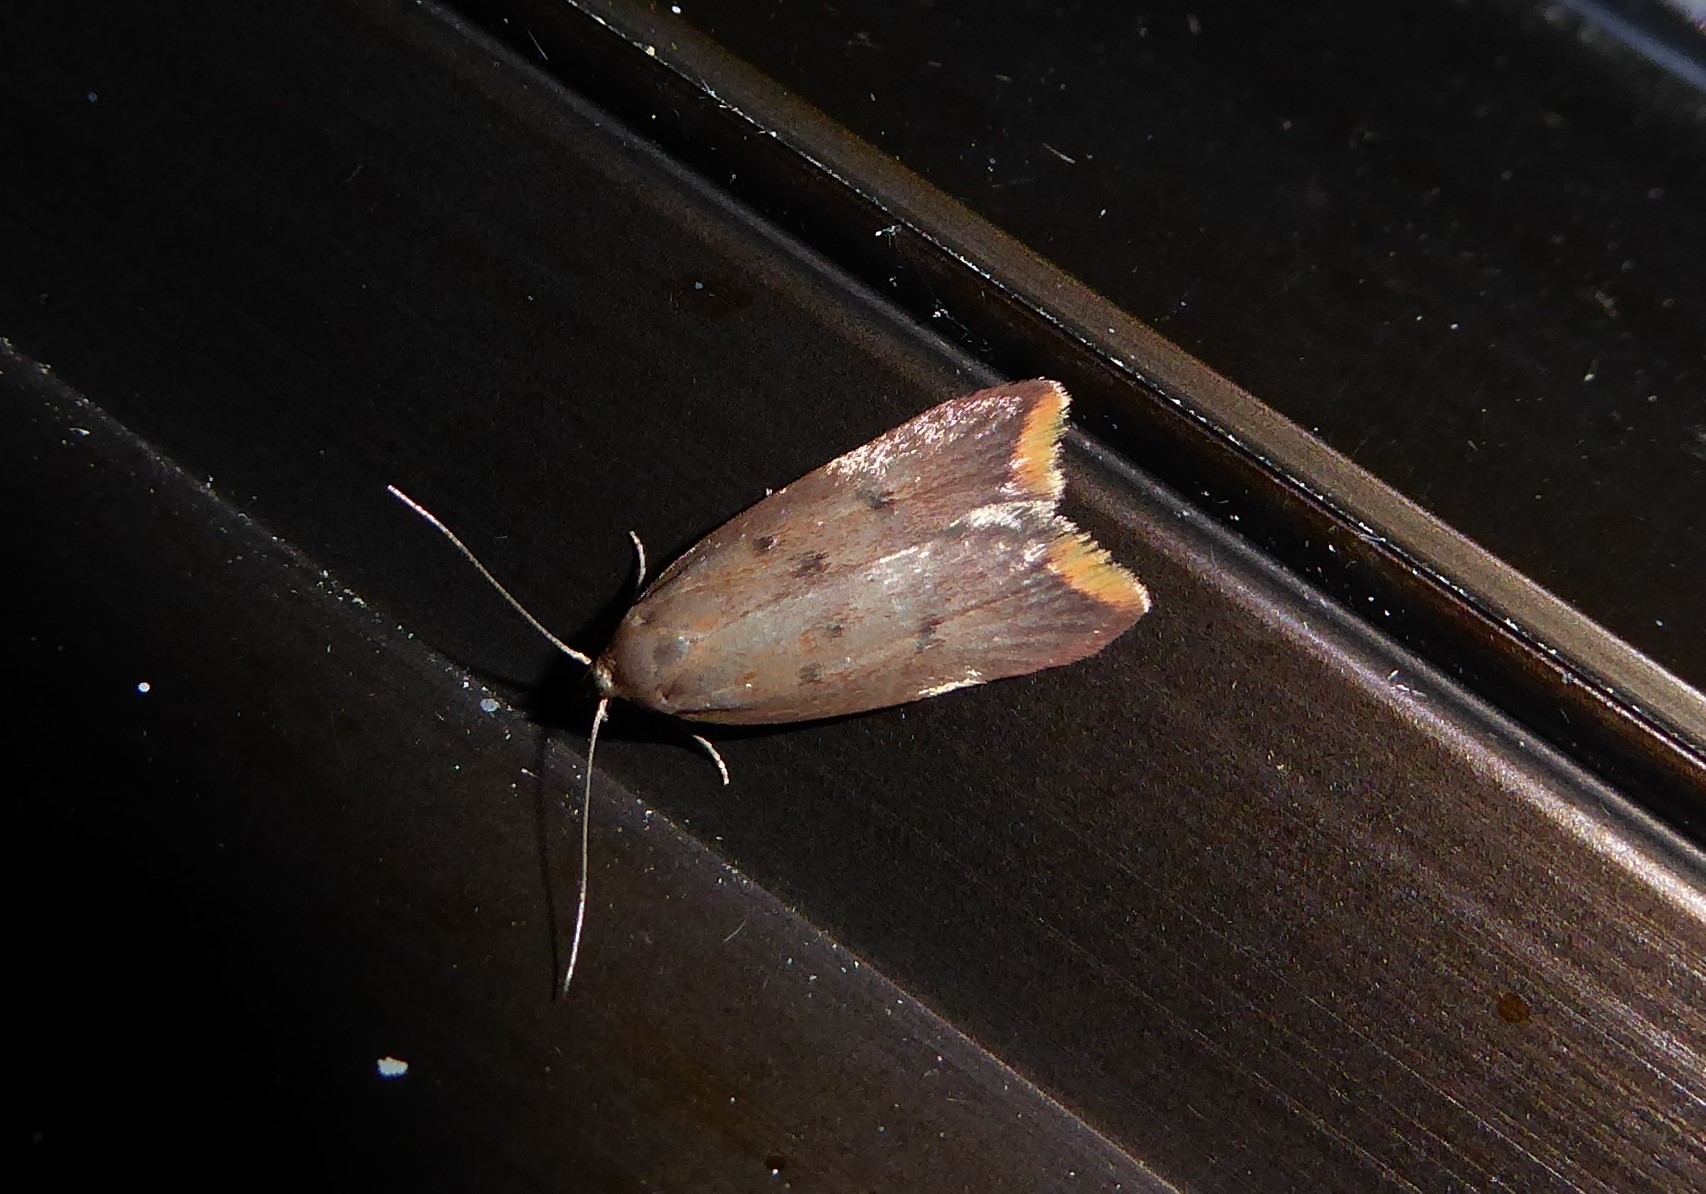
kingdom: Animalia
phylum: Arthropoda
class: Insecta
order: Lepidoptera
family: Oecophoridae
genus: Tachystola
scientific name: Tachystola acroxantha
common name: Ruddy streak
